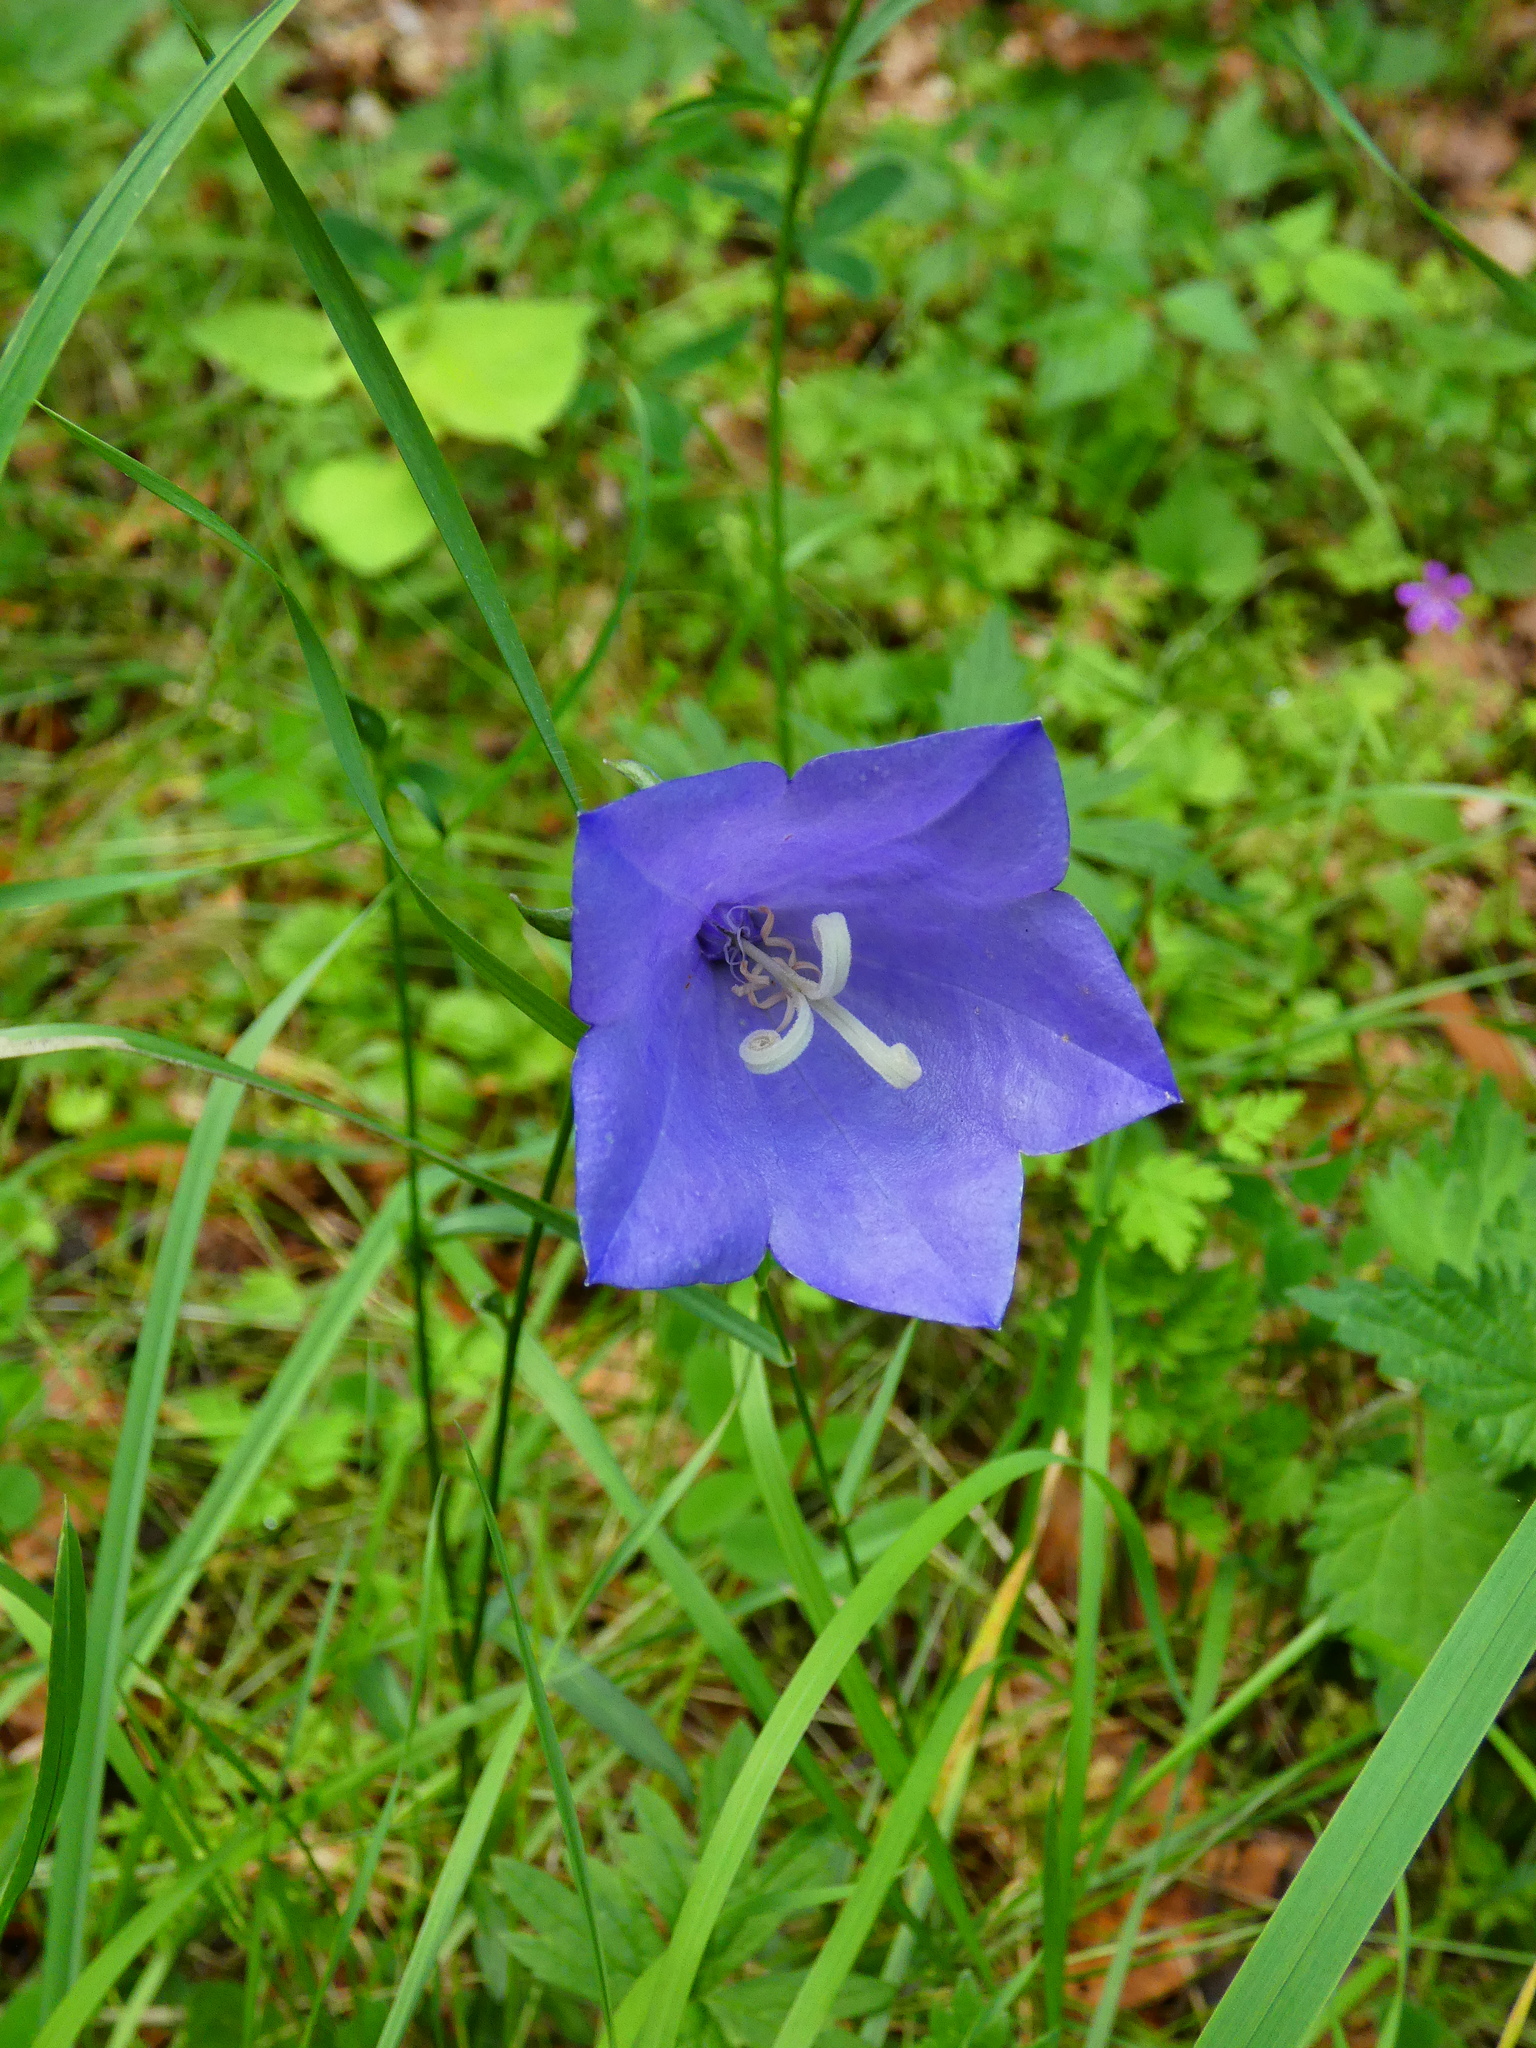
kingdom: Plantae
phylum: Tracheophyta
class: Magnoliopsida
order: Asterales
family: Campanulaceae
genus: Campanula
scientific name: Campanula persicifolia
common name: Peach-leaved bellflower
